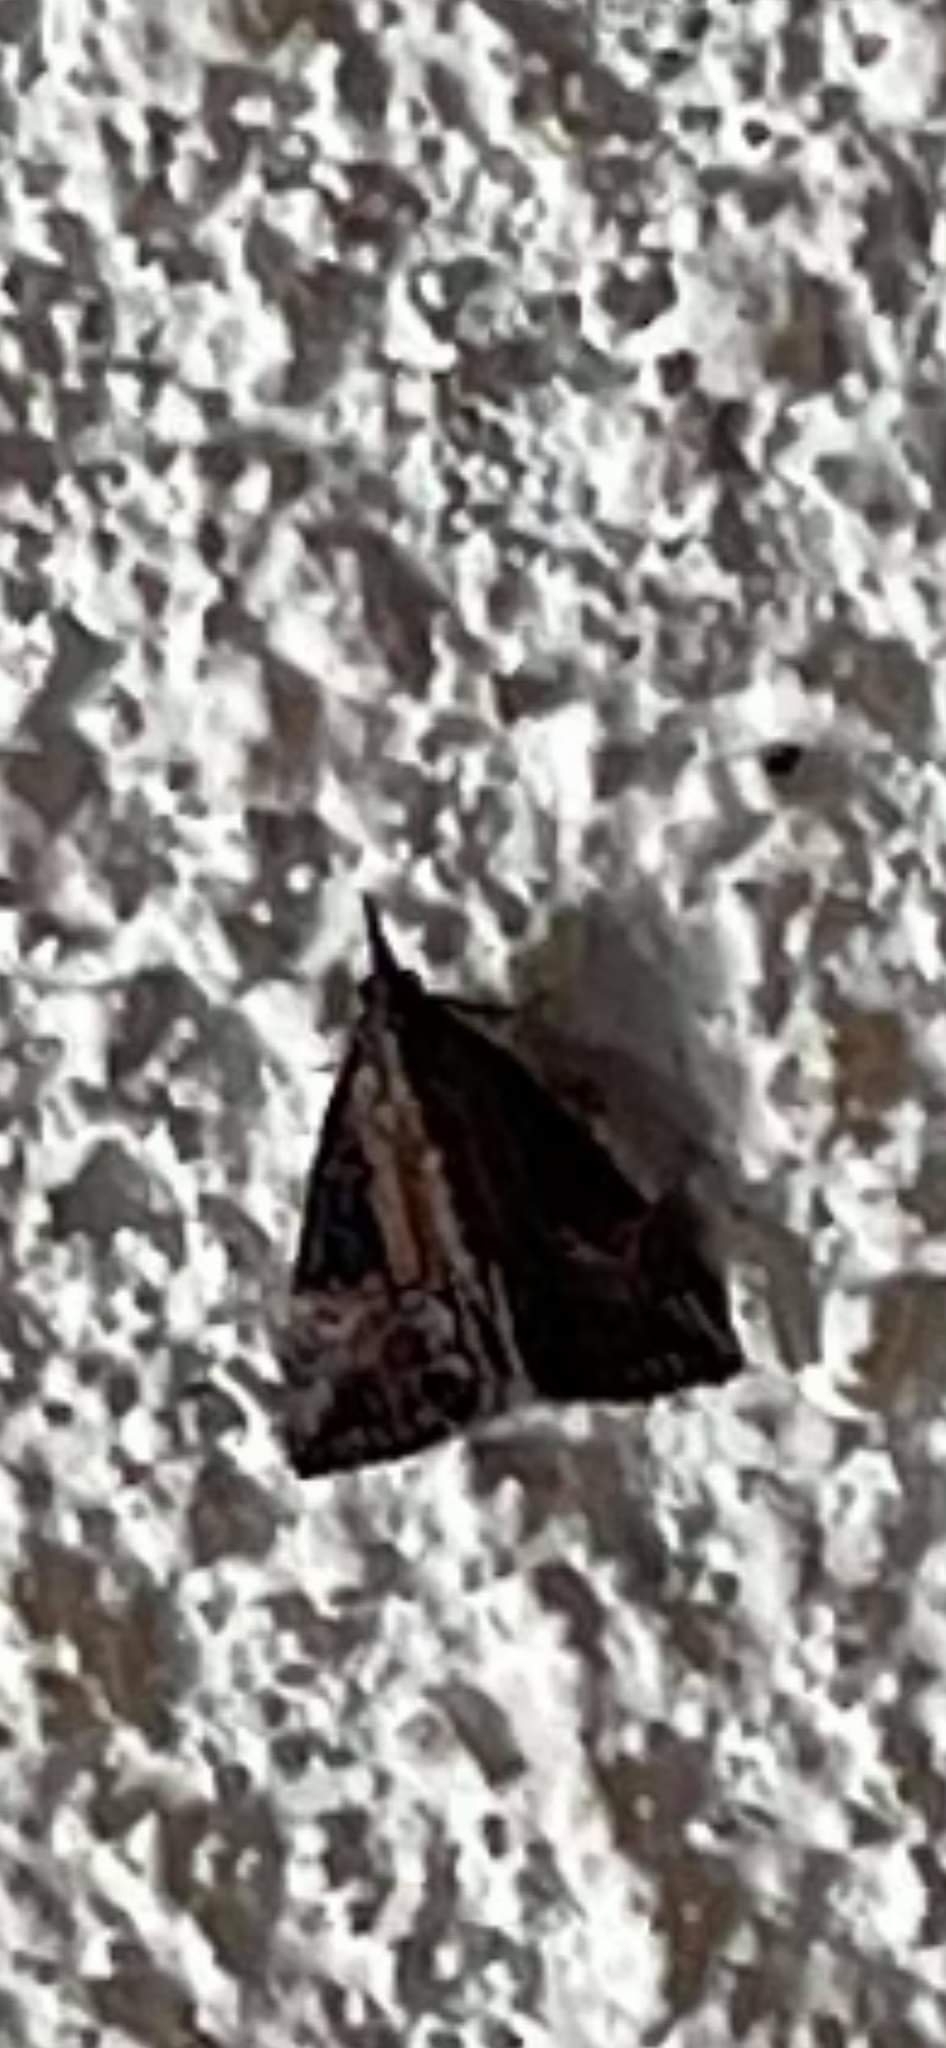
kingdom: Animalia
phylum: Arthropoda
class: Insecta
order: Lepidoptera
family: Erebidae
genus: Hypena
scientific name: Hypena scabra
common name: Green cloverworm
